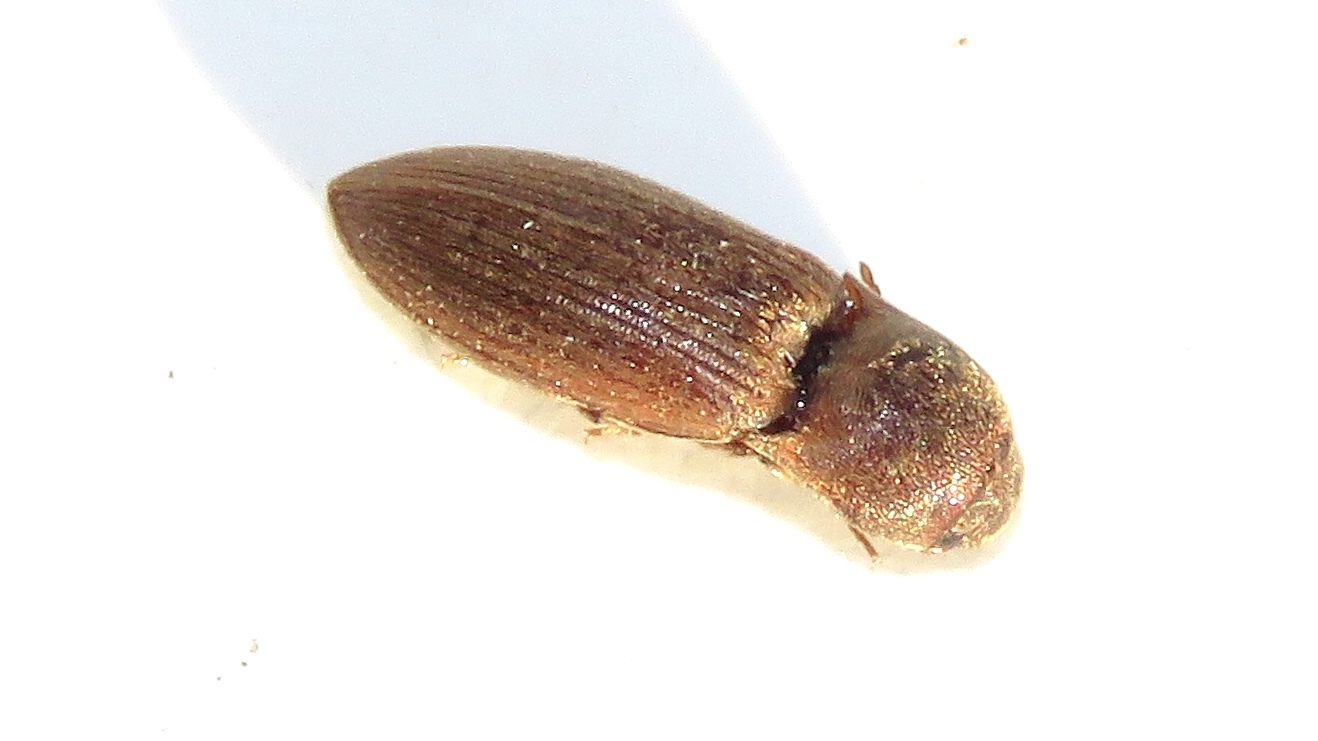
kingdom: Animalia
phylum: Arthropoda
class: Insecta
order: Coleoptera
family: Elateridae
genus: Agriotes
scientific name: Agriotes mancus
